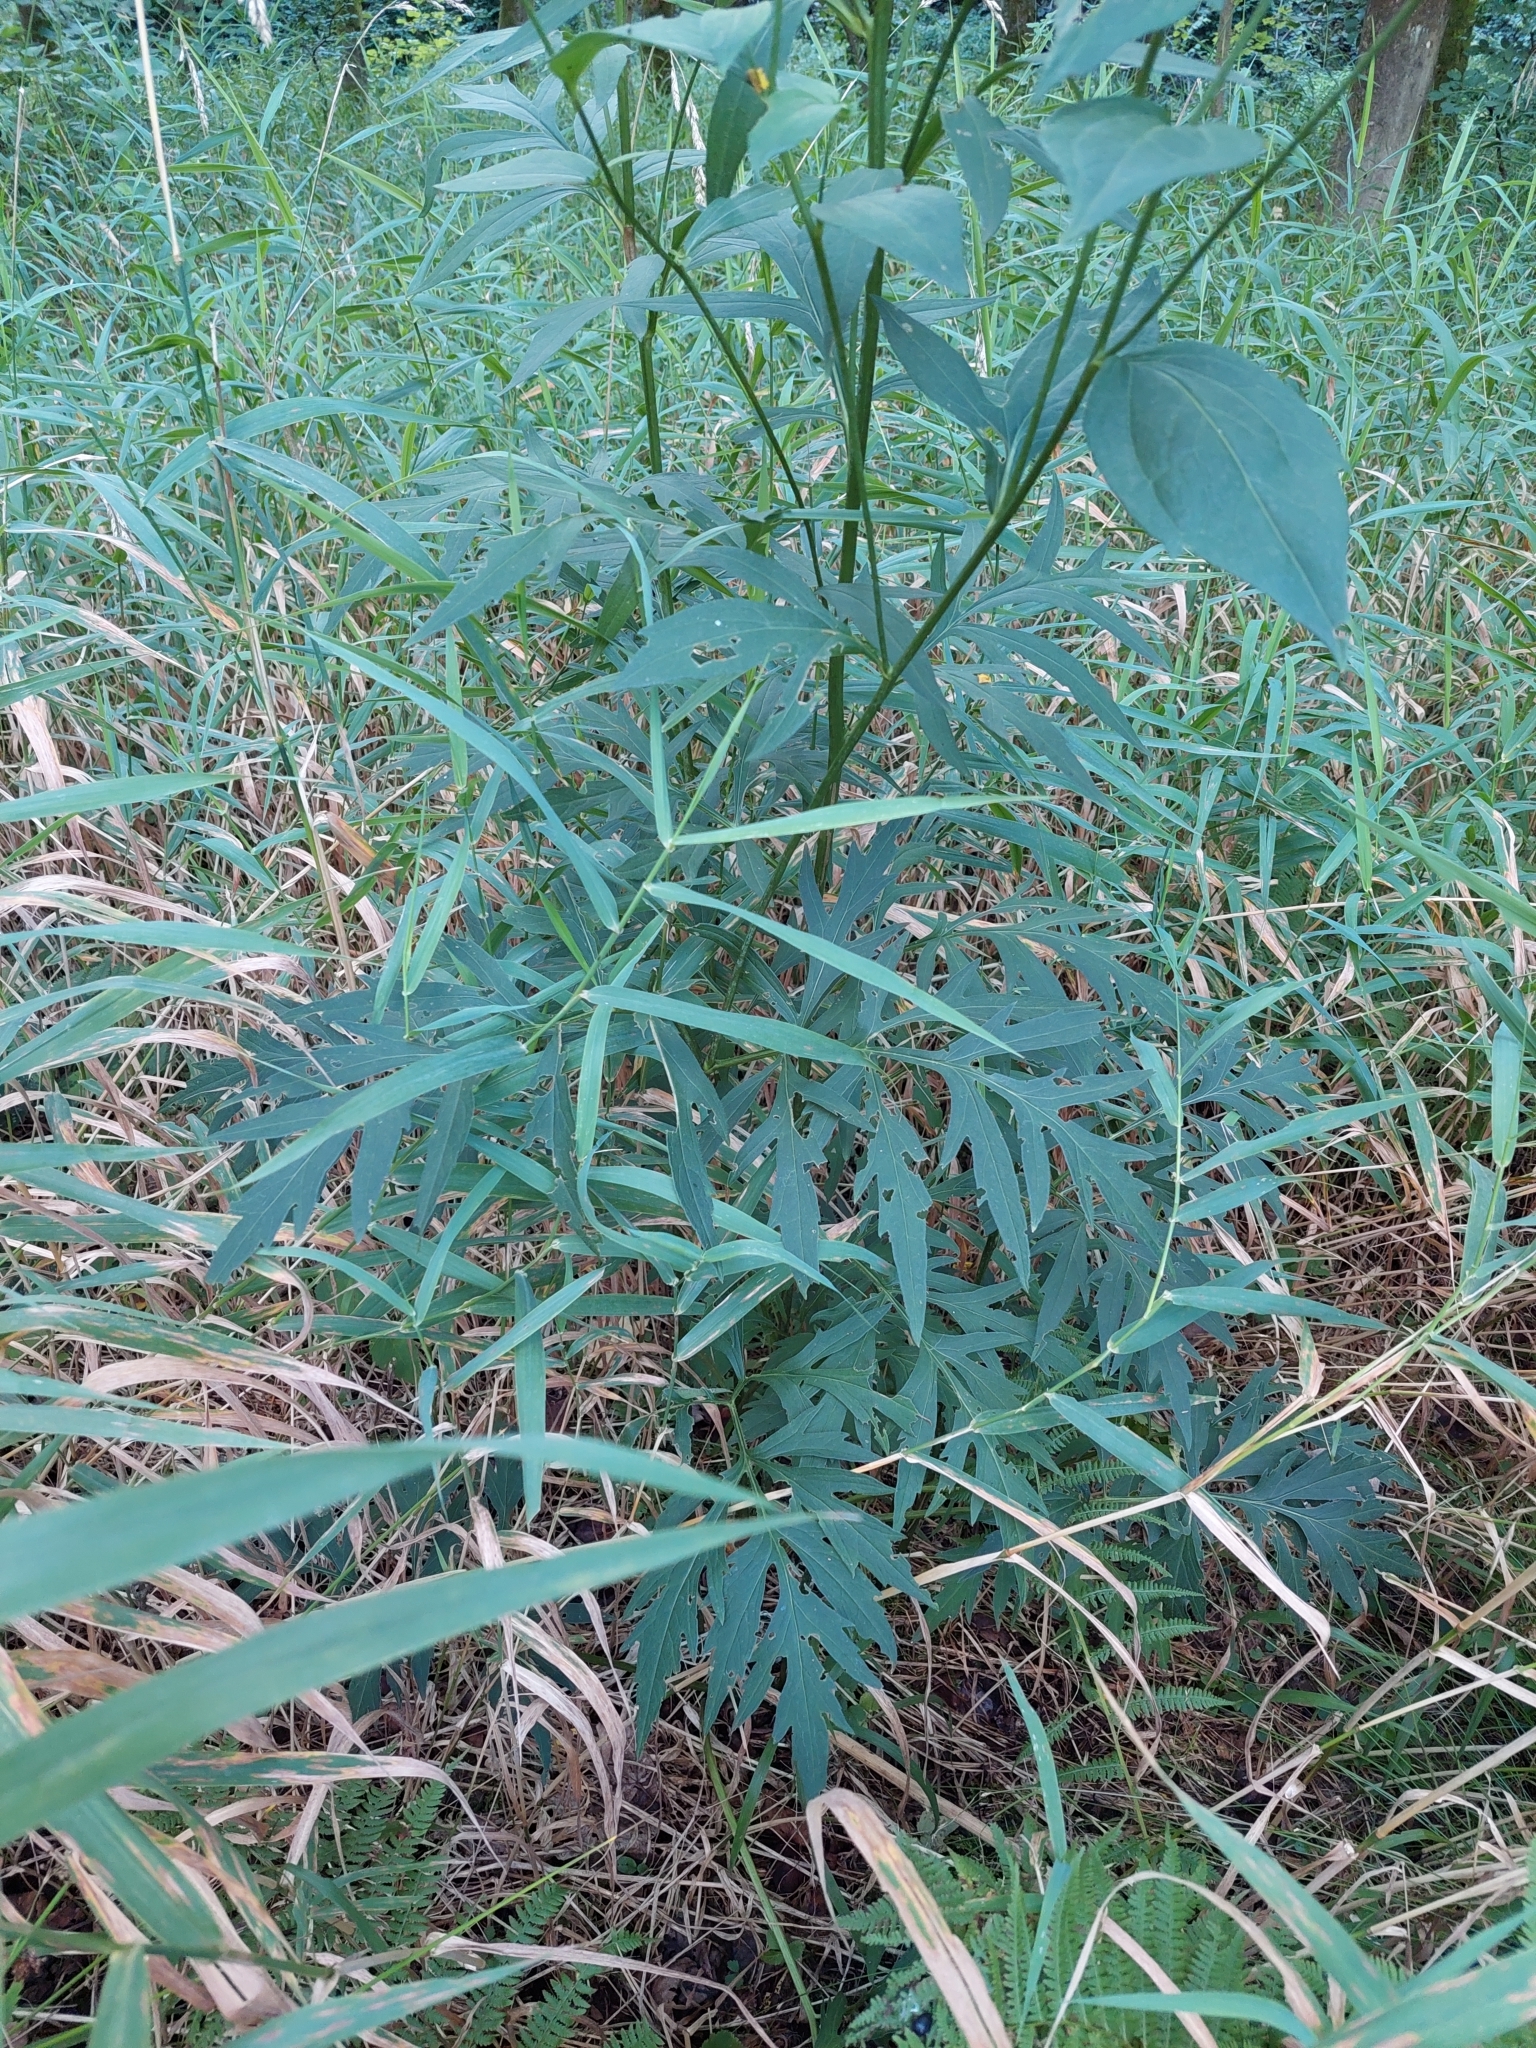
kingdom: Plantae
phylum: Tracheophyta
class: Magnoliopsida
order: Asterales
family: Asteraceae
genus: Rudbeckia
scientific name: Rudbeckia laciniata
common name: Coneflower
